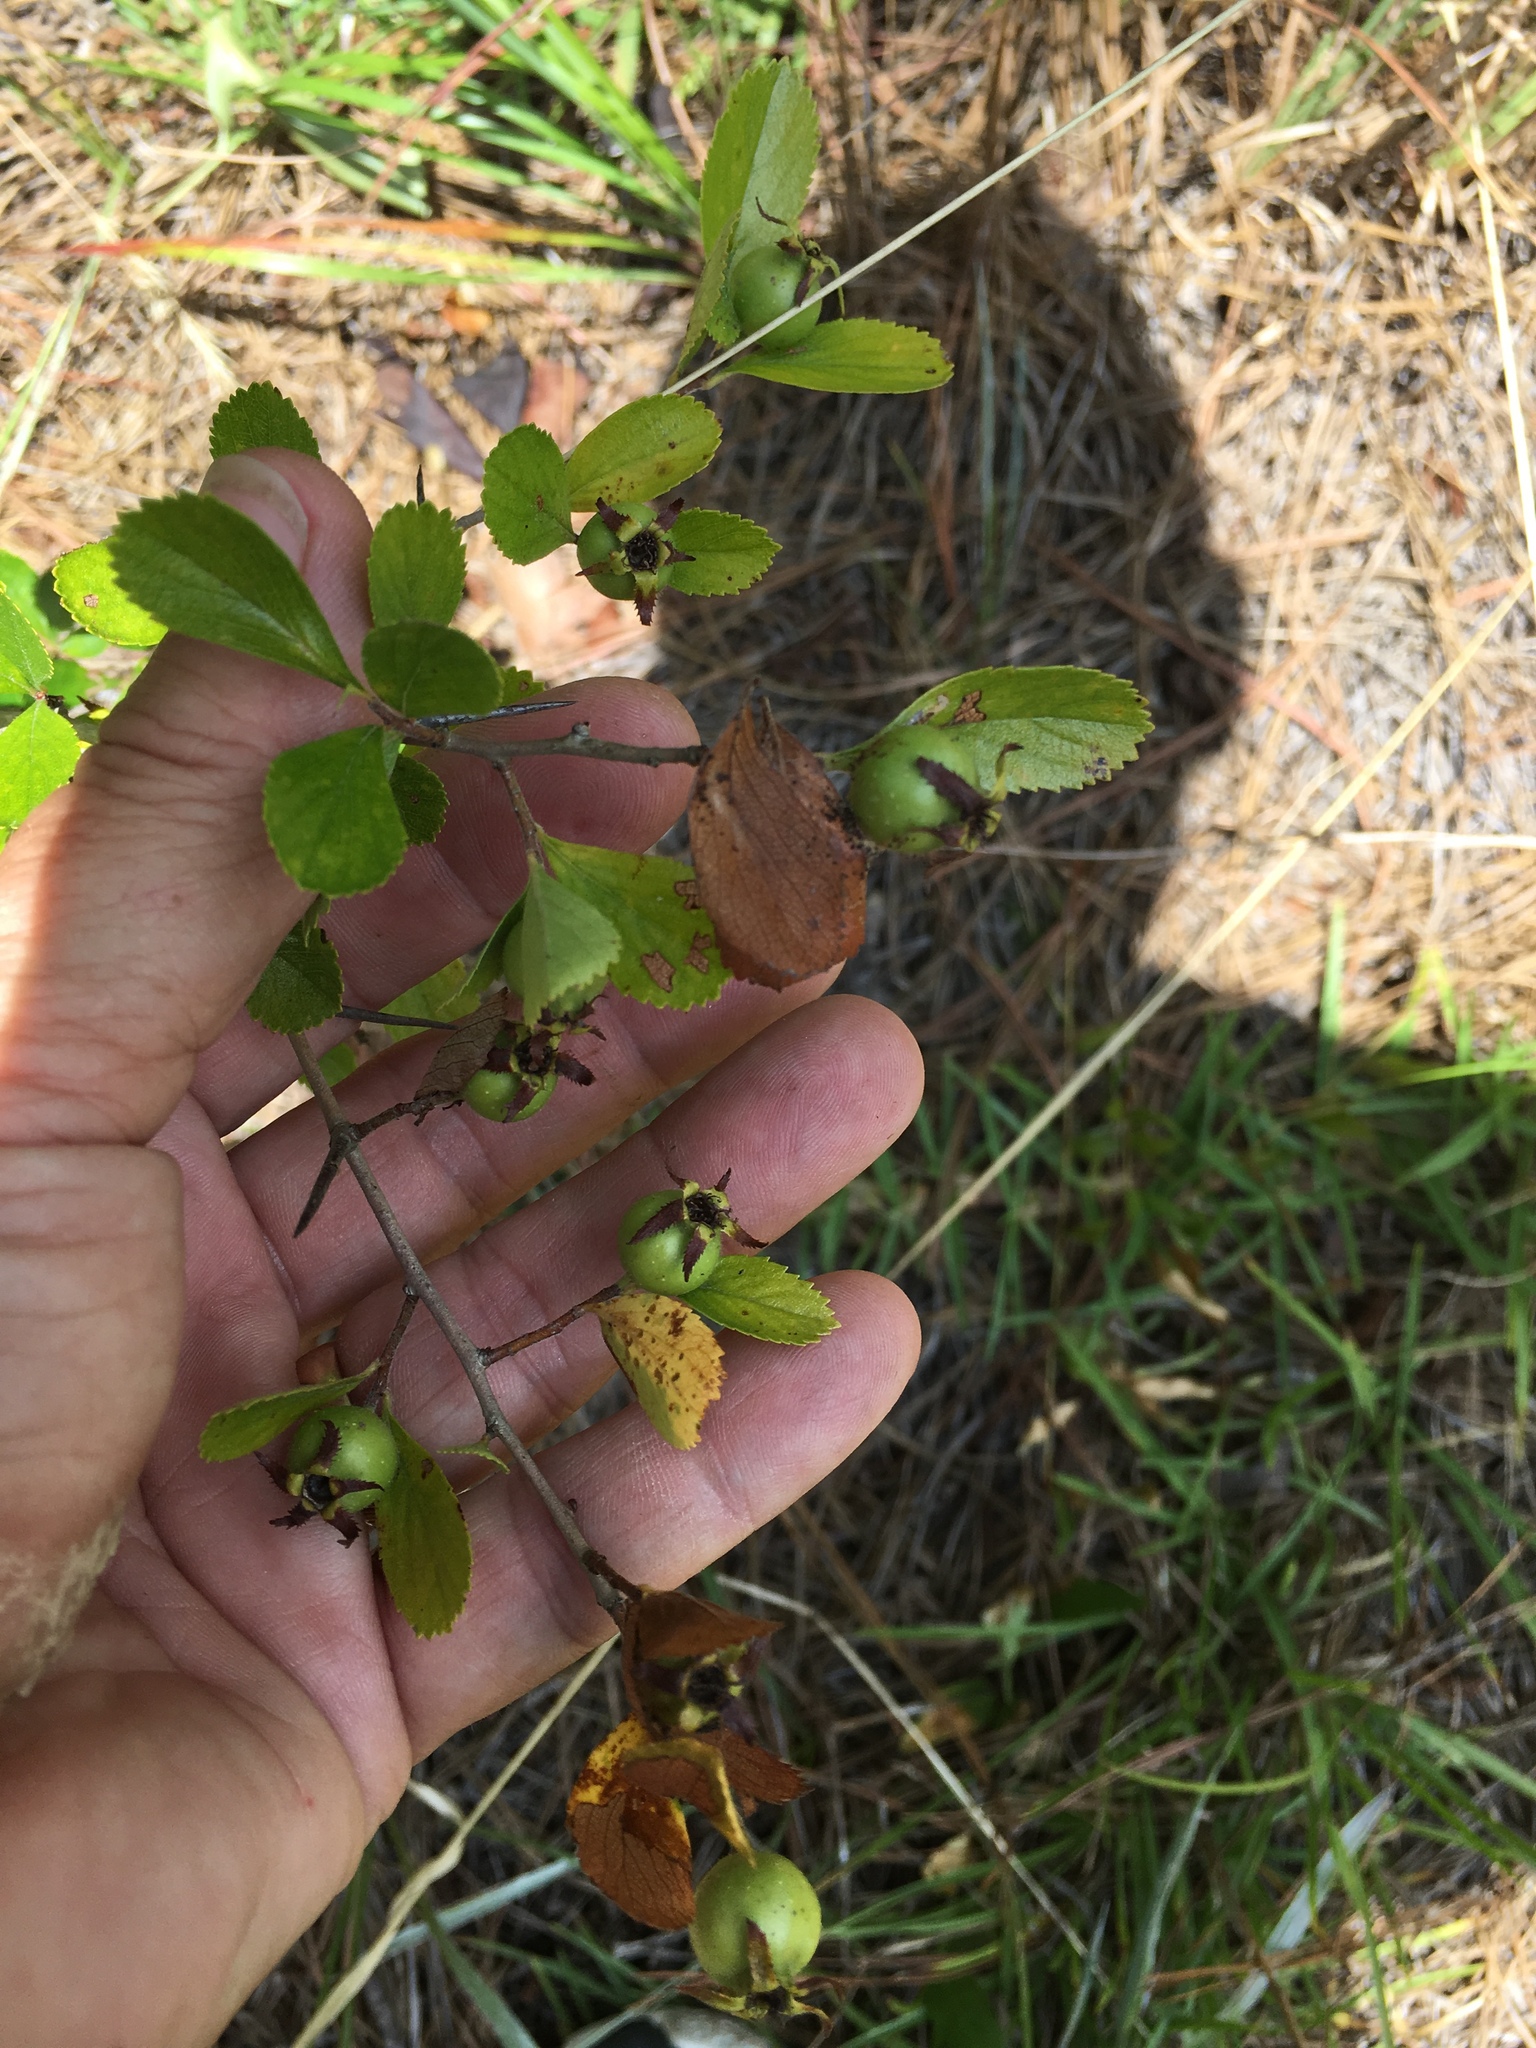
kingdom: Plantae
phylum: Tracheophyta
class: Magnoliopsida
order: Rosales
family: Rosaceae
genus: Crataegus
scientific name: Crataegus uniflora
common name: One-flower hawthorn
